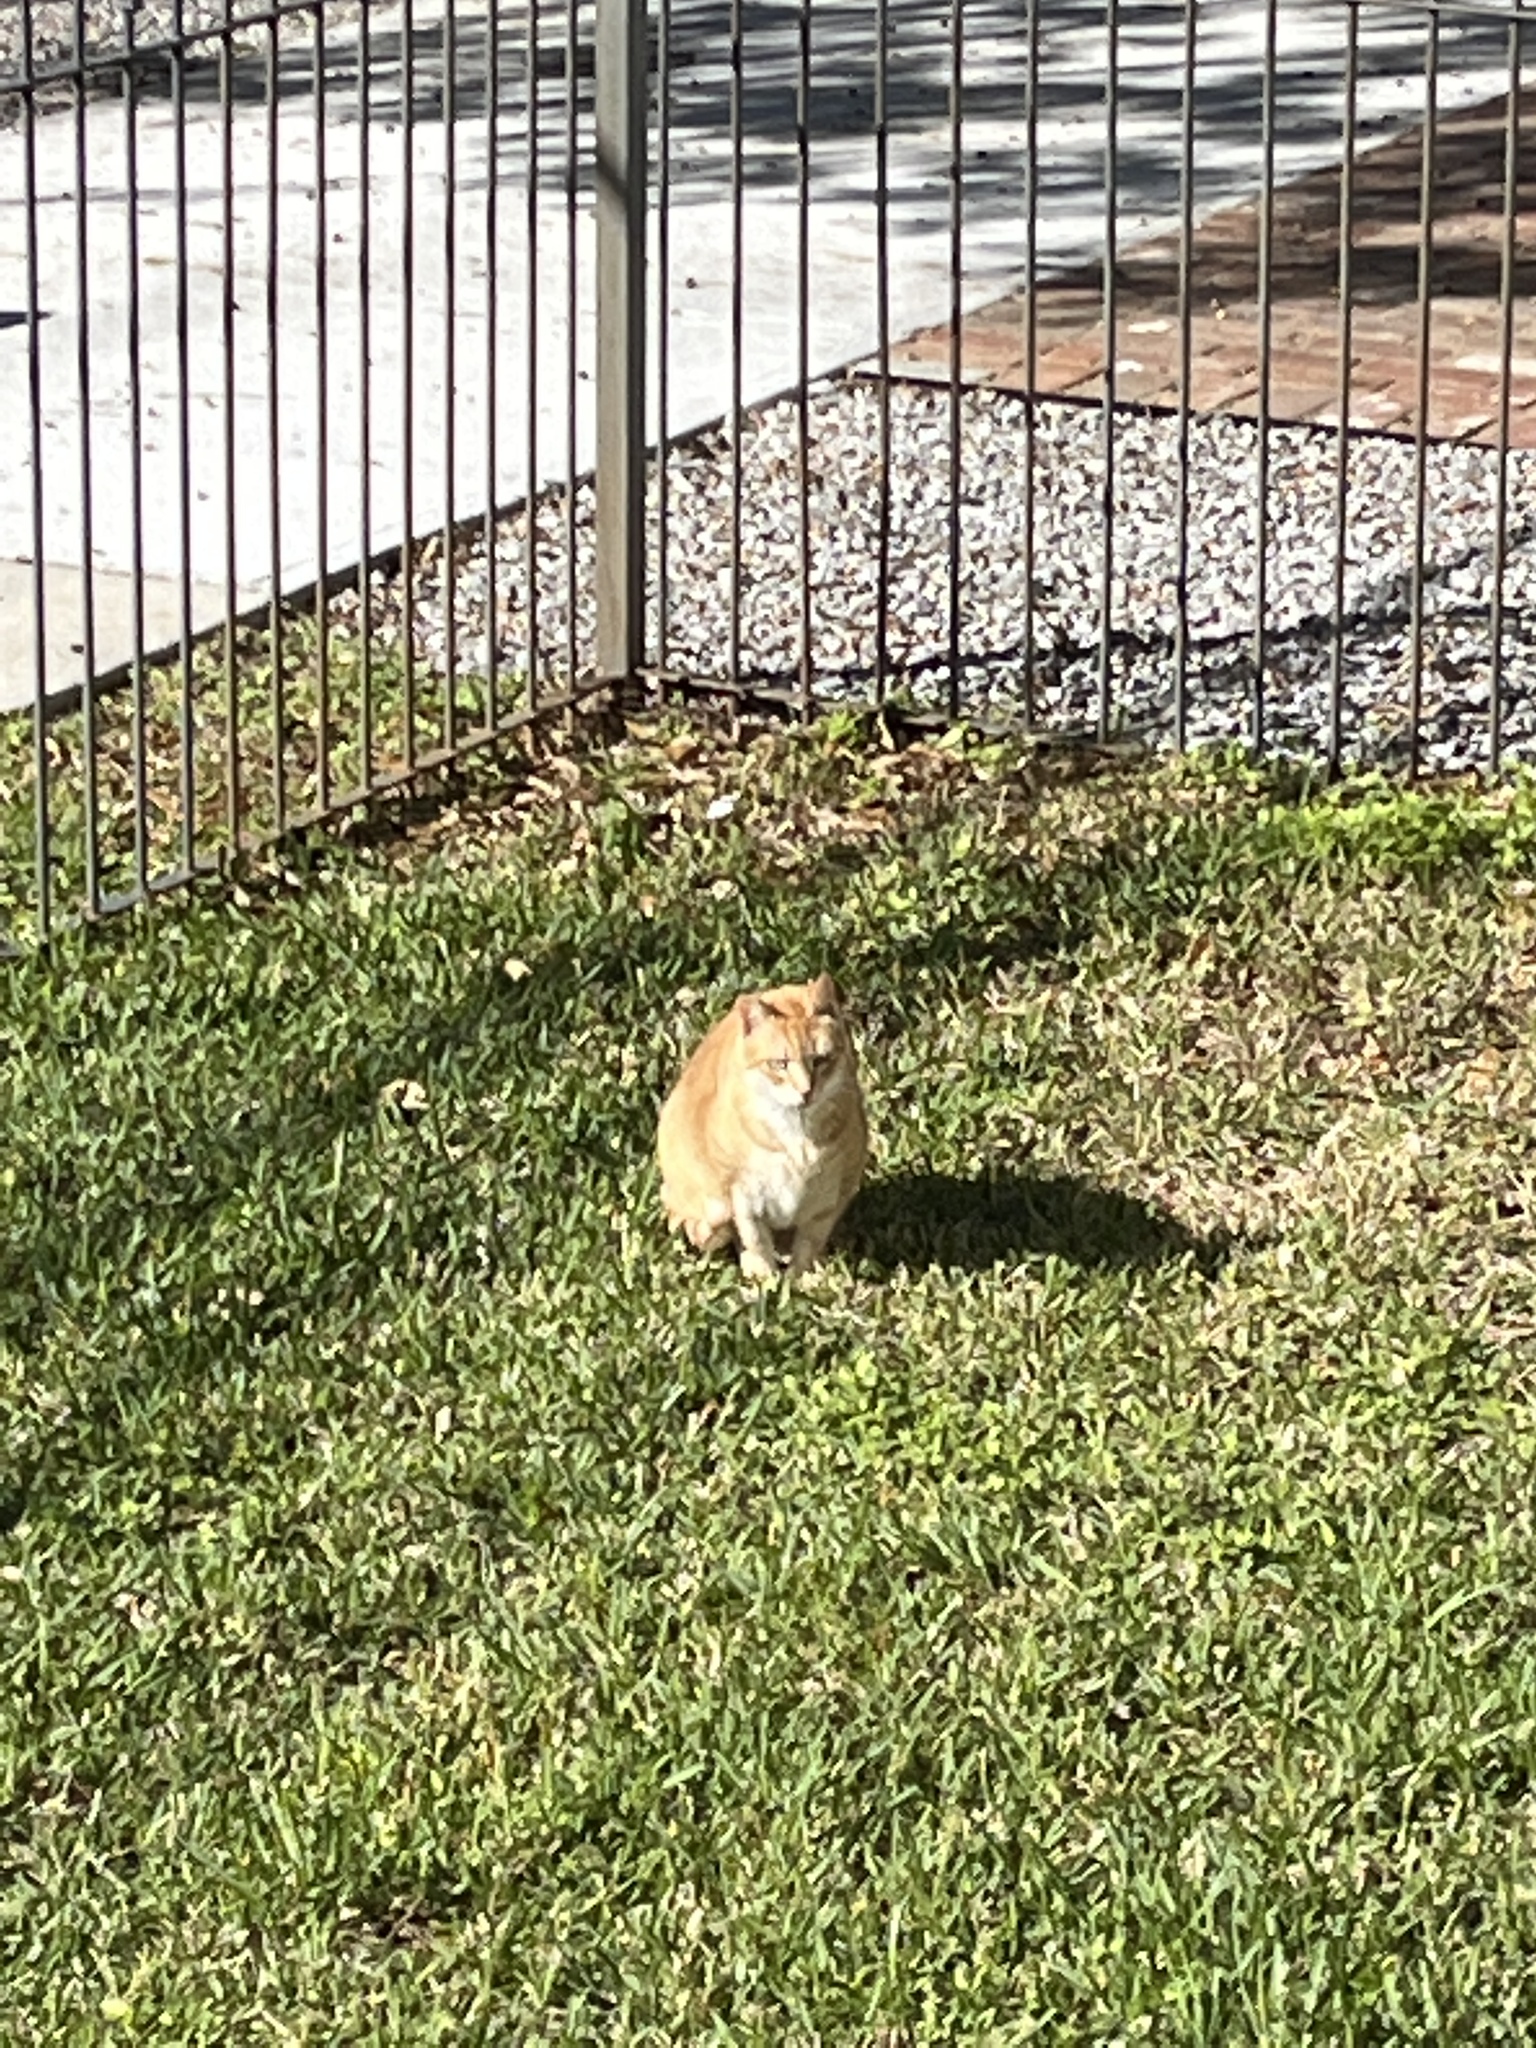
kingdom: Animalia
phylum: Chordata
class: Mammalia
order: Carnivora
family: Felidae
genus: Felis
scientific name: Felis catus
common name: Domestic cat
